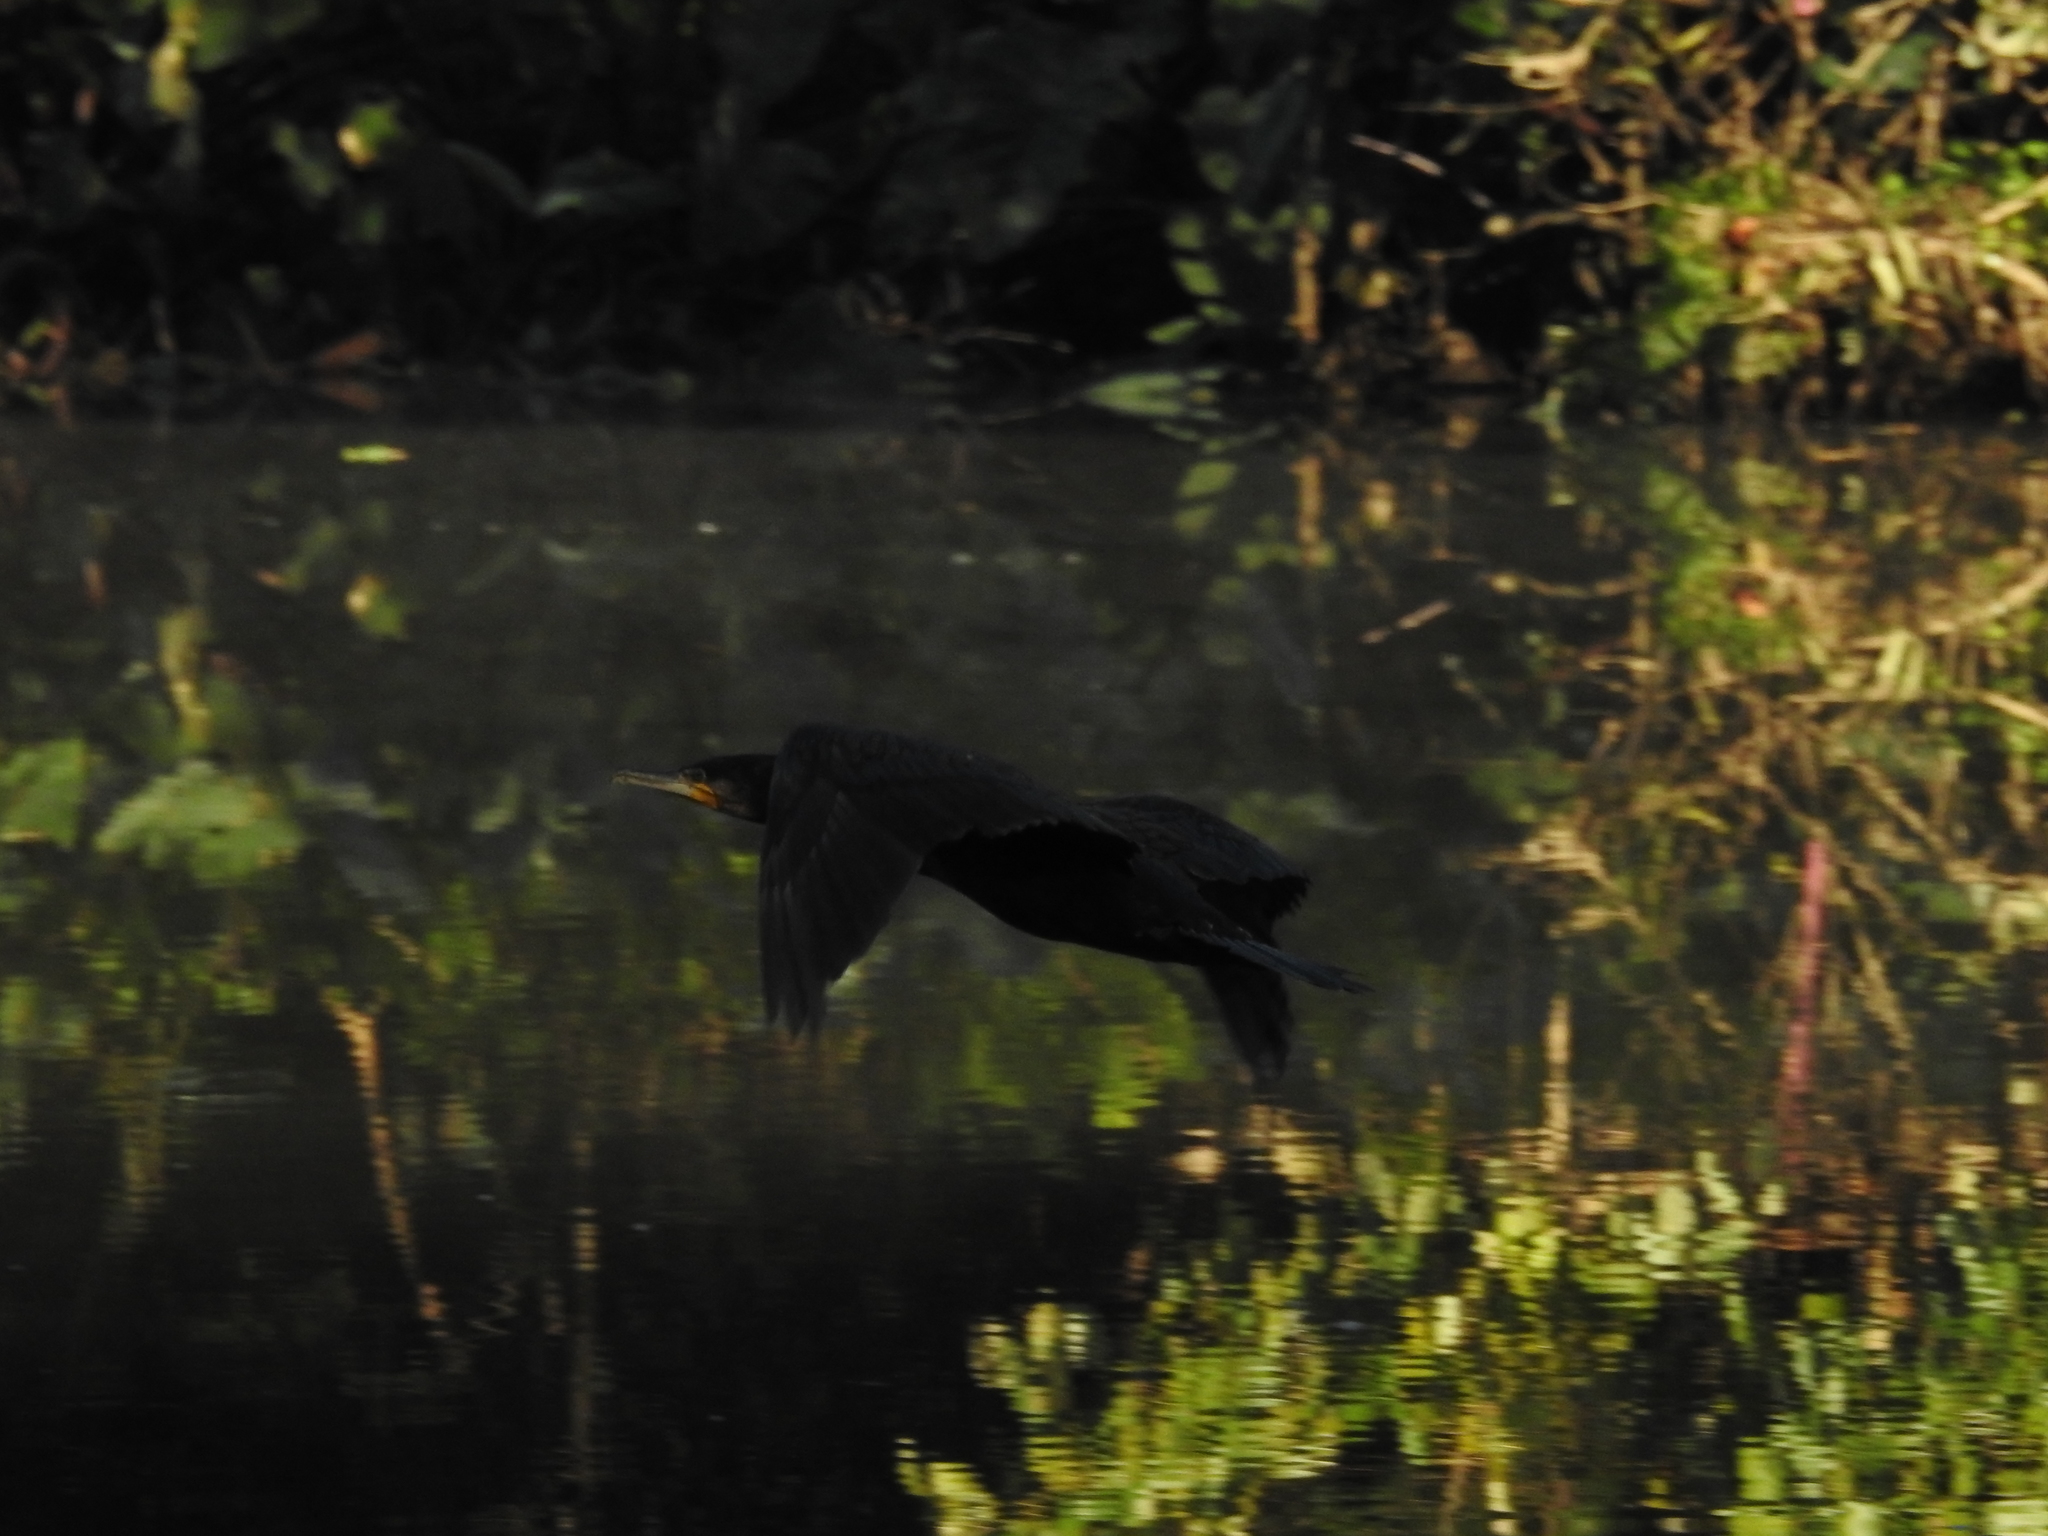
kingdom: Animalia
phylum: Chordata
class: Aves
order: Suliformes
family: Phalacrocoracidae
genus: Phalacrocorax
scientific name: Phalacrocorax carbo
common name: Great cormorant
